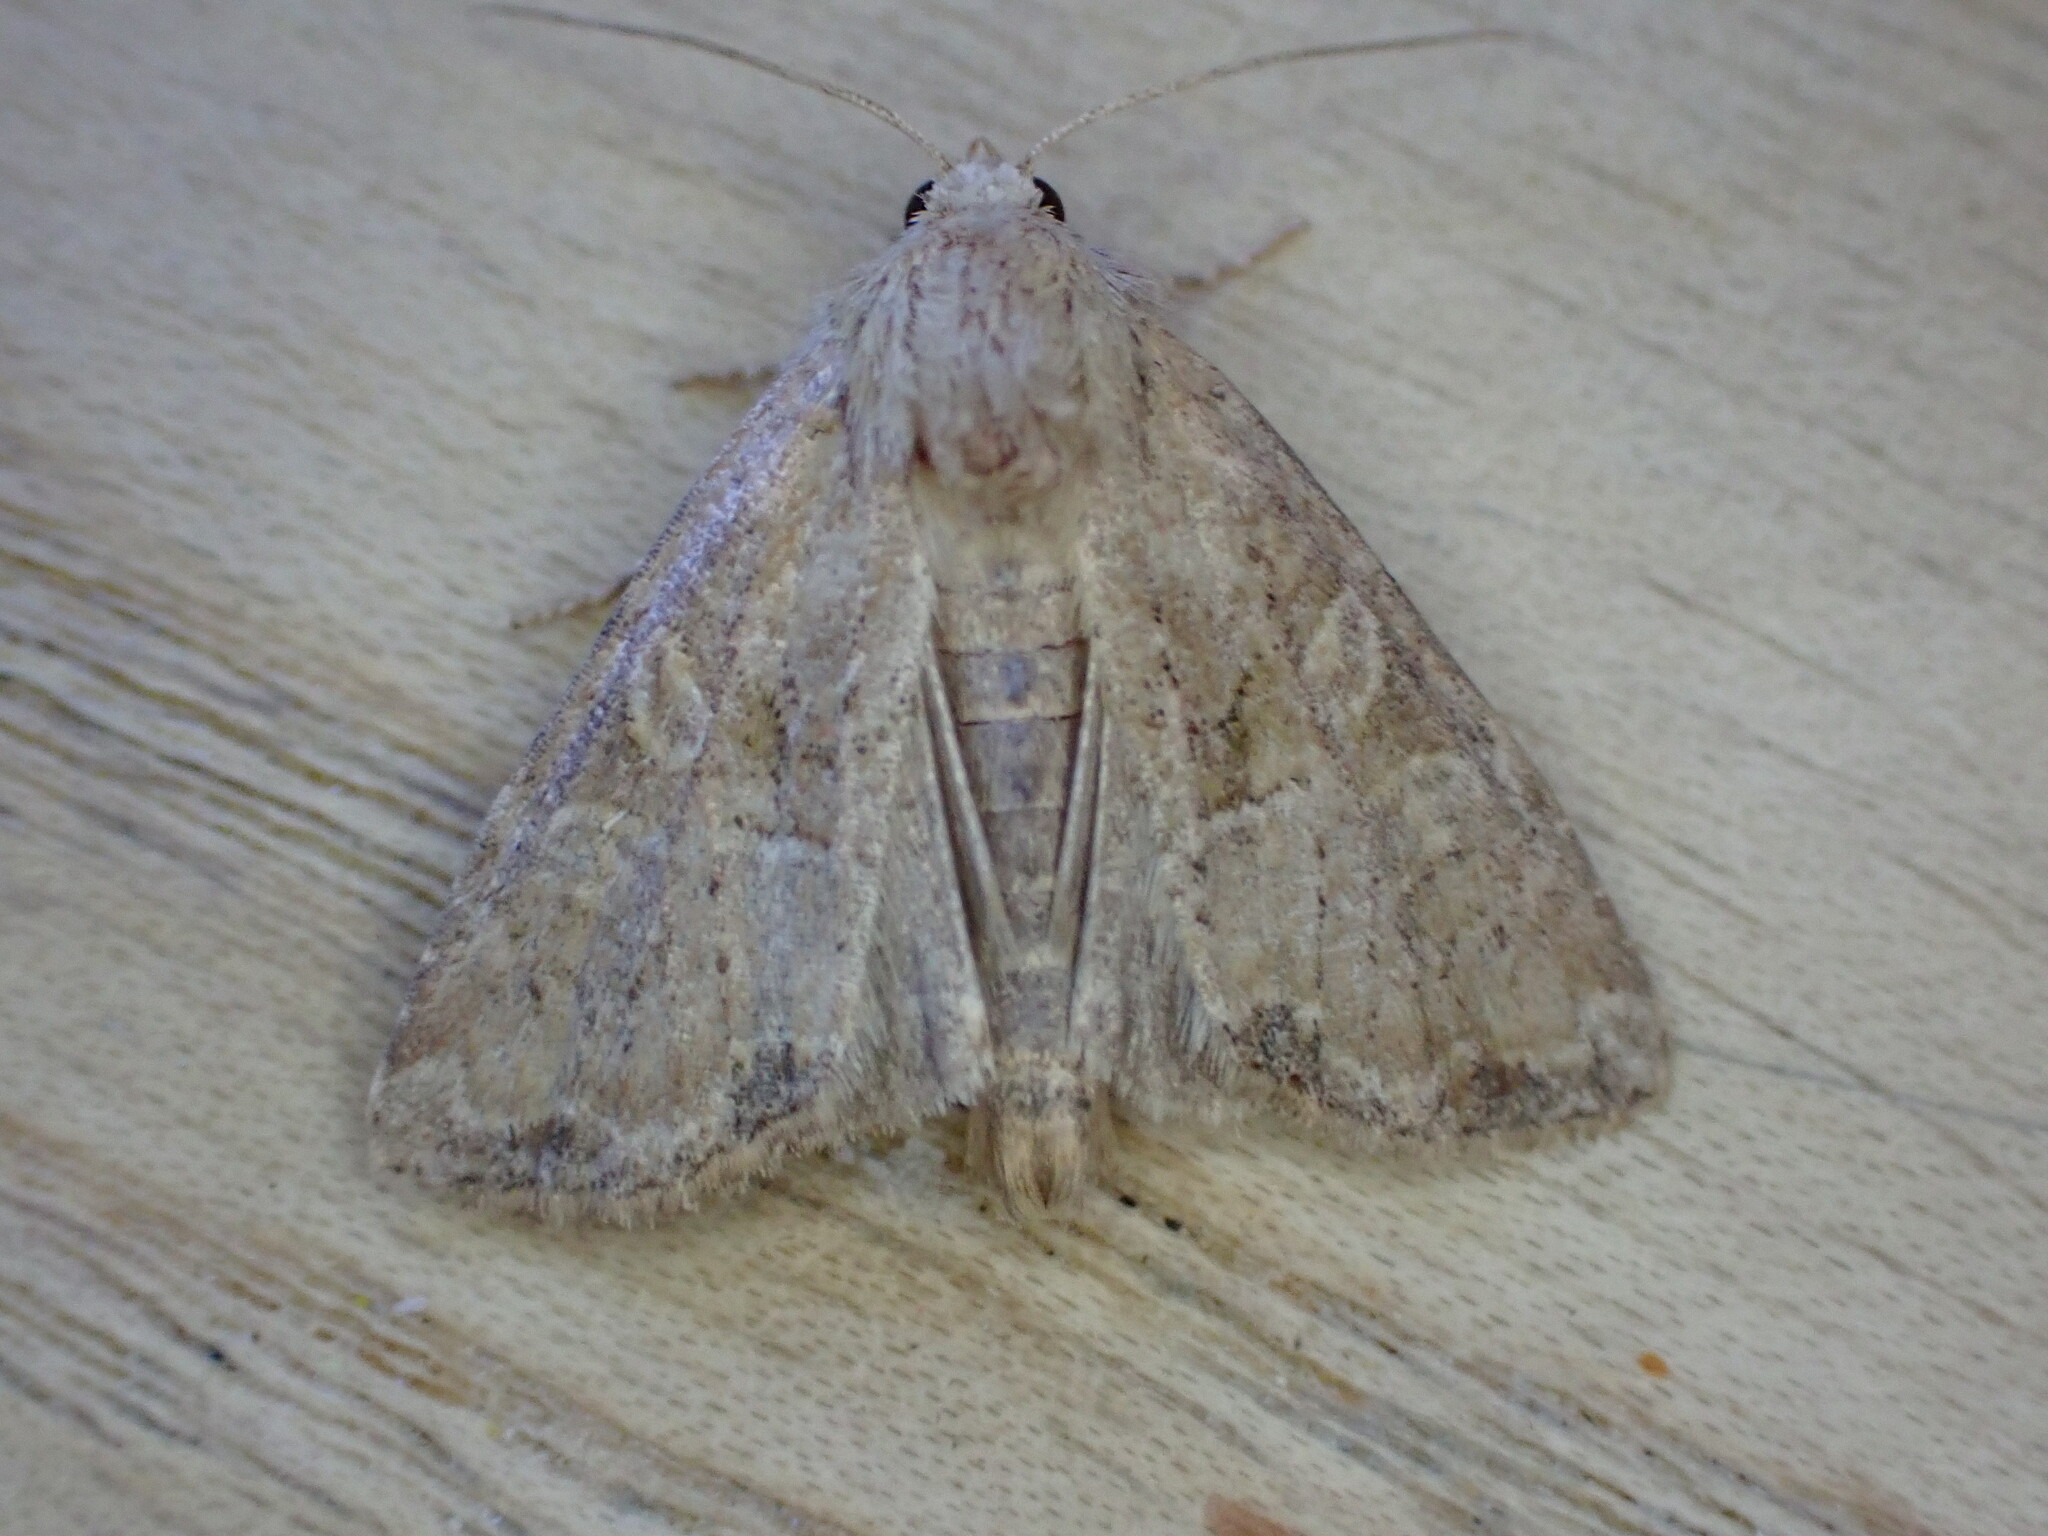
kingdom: Animalia
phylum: Arthropoda
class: Insecta
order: Lepidoptera
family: Noctuidae
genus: Mesoligia
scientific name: Mesoligia furuncula
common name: Cloaked minor
